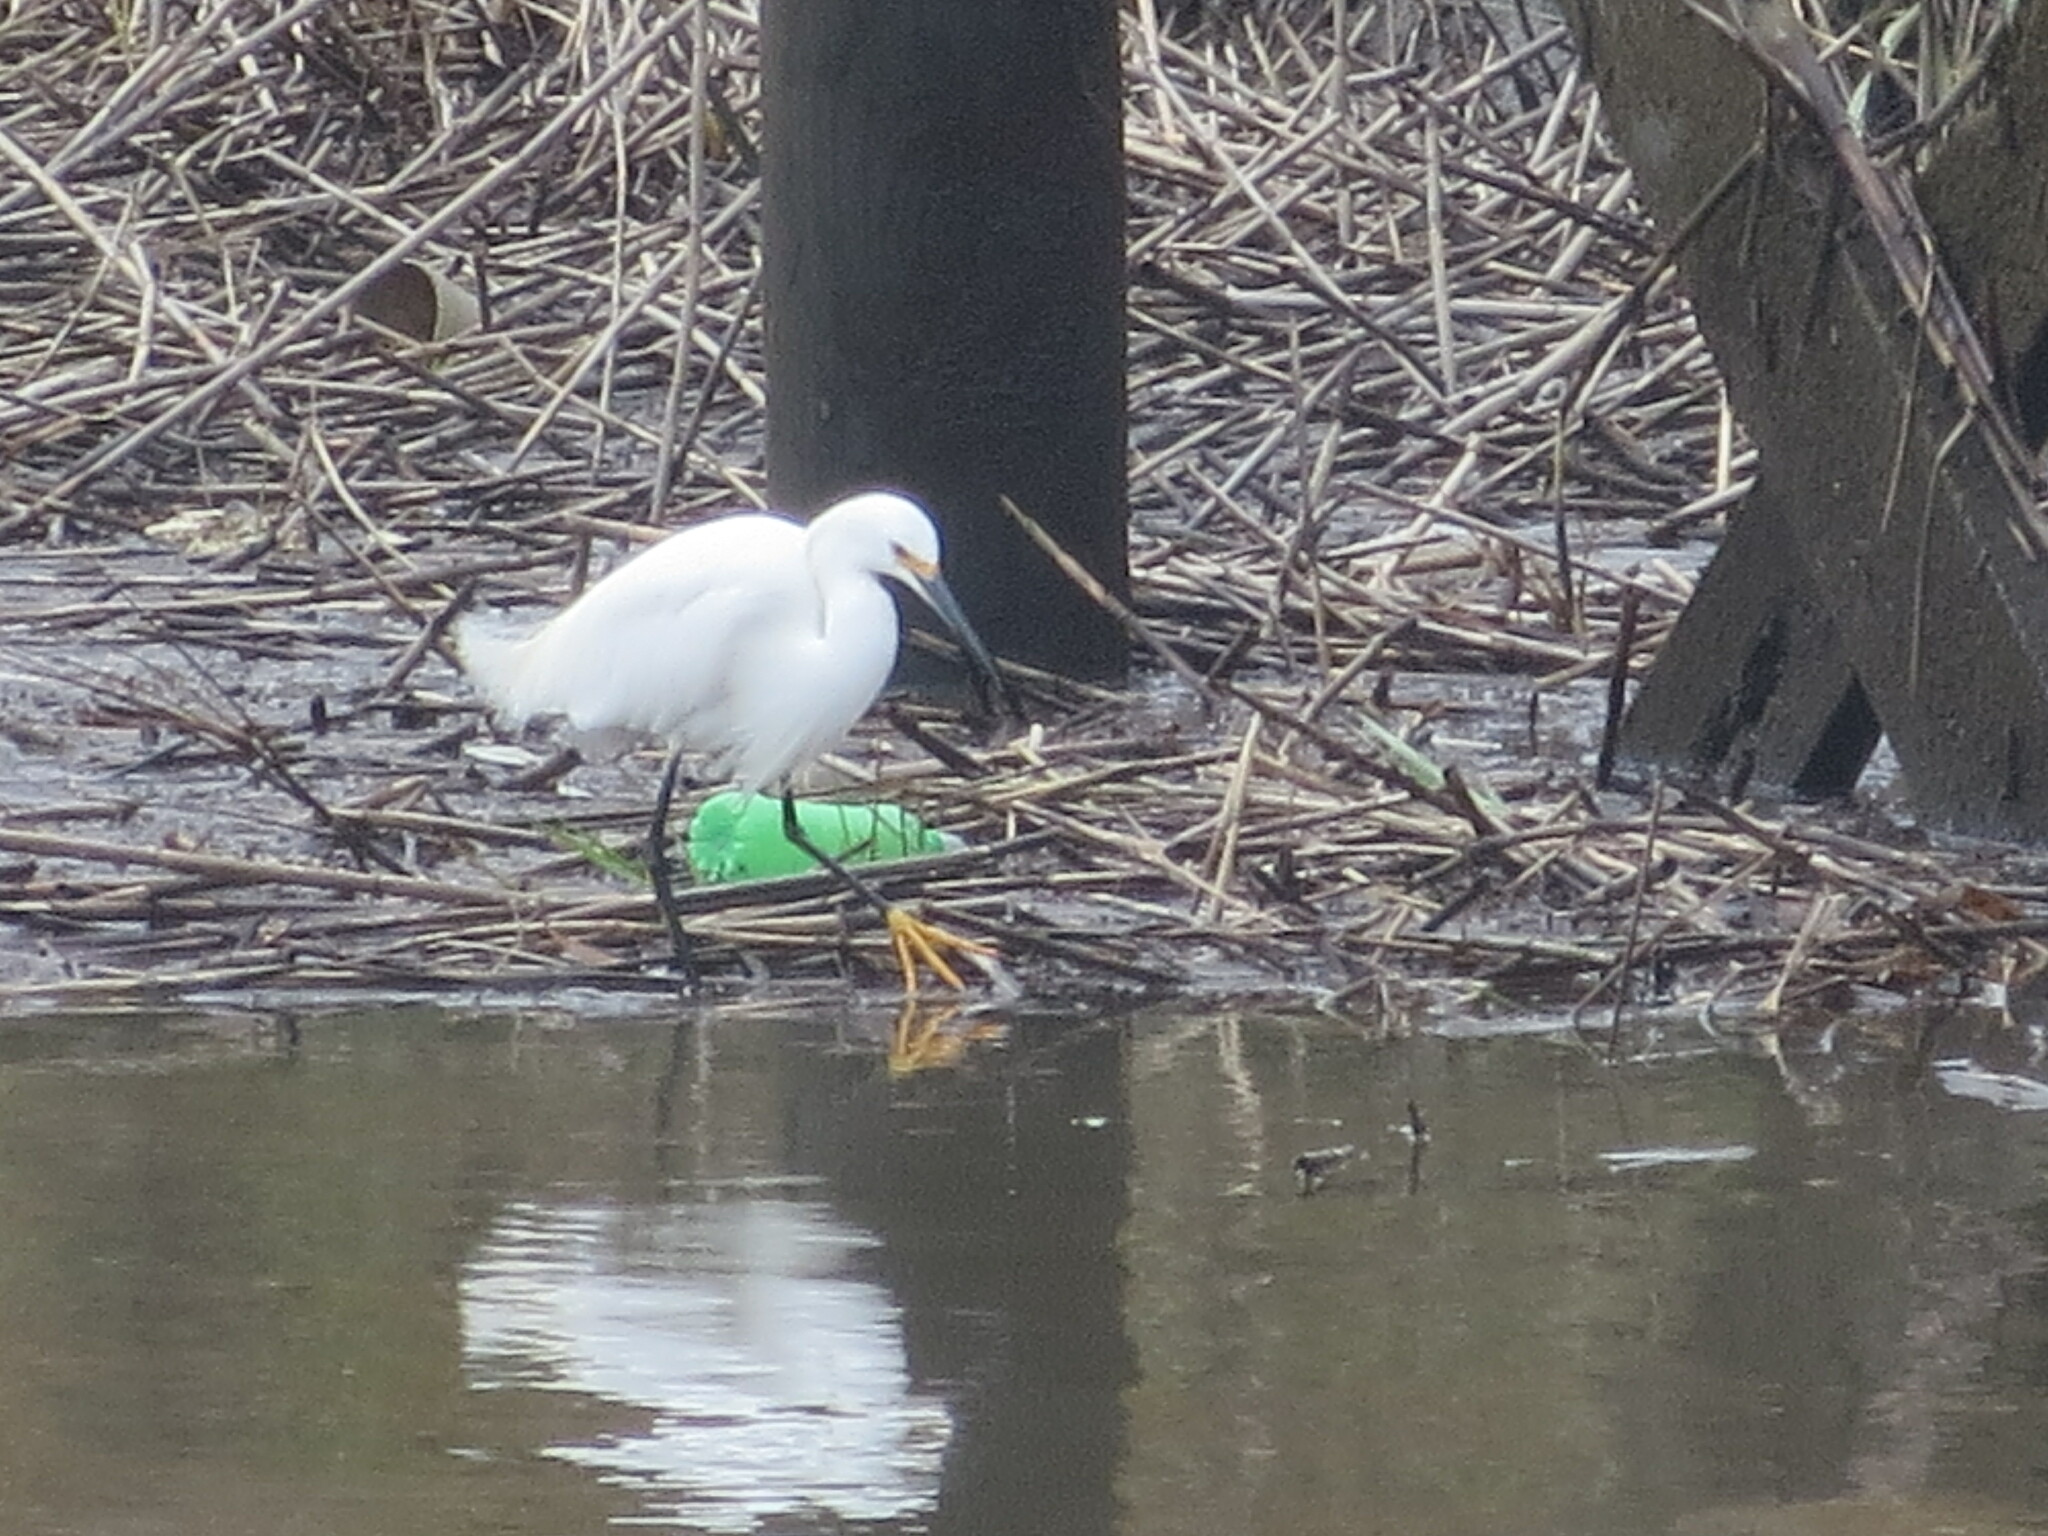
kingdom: Animalia
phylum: Chordata
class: Aves
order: Pelecaniformes
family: Ardeidae
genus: Egretta
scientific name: Egretta thula
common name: Snowy egret
